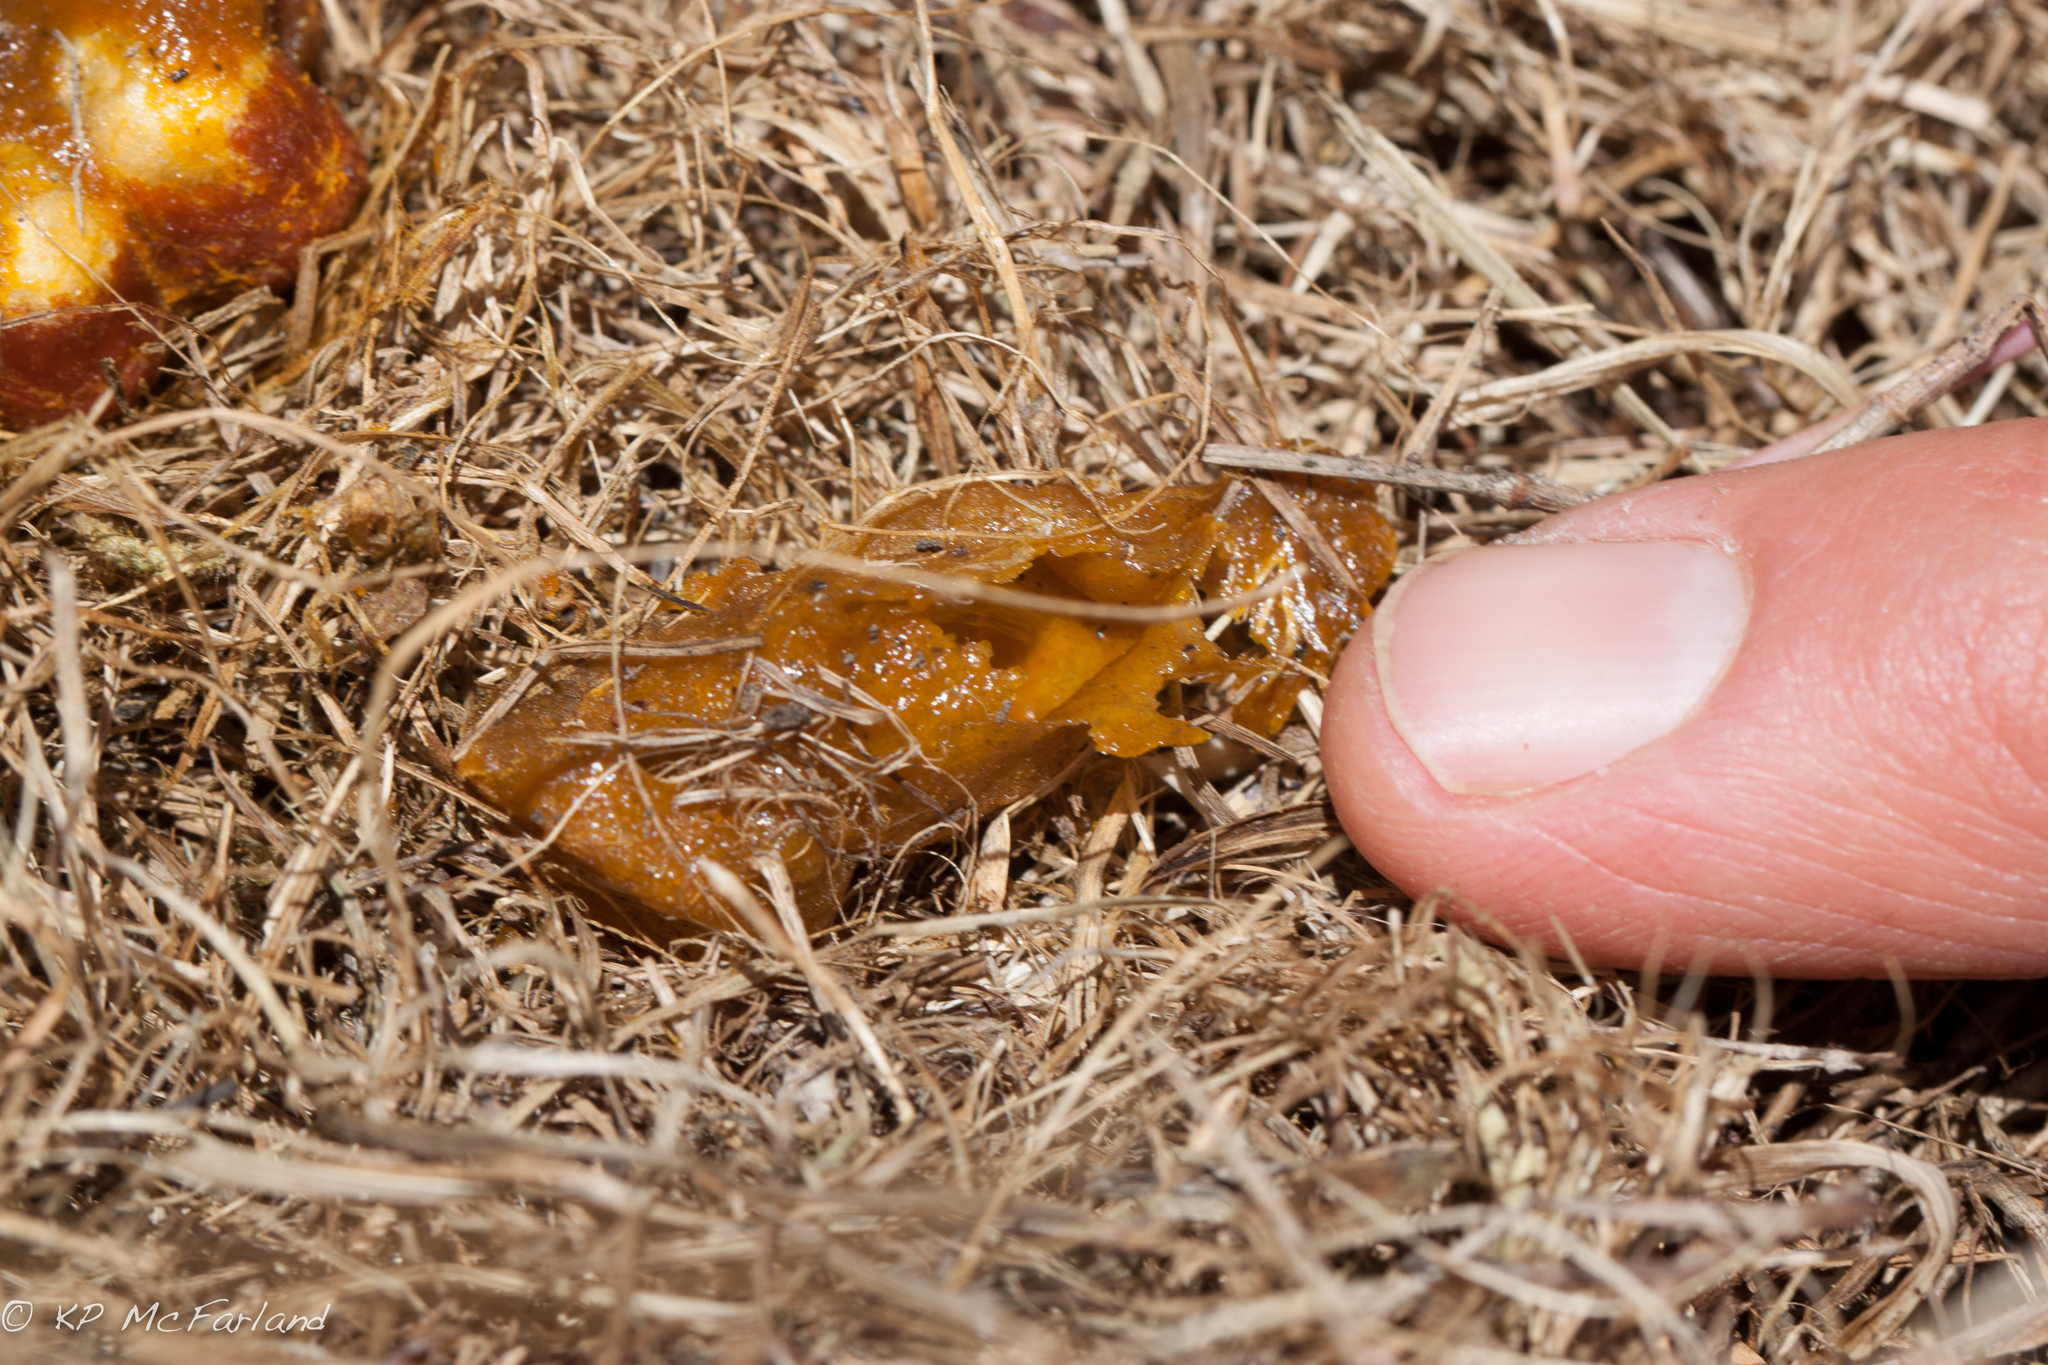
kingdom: Animalia
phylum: Arthropoda
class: Insecta
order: Hymenoptera
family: Apidae
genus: Bombus
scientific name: Bombus griseocollis
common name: Brown-belted bumble bee
